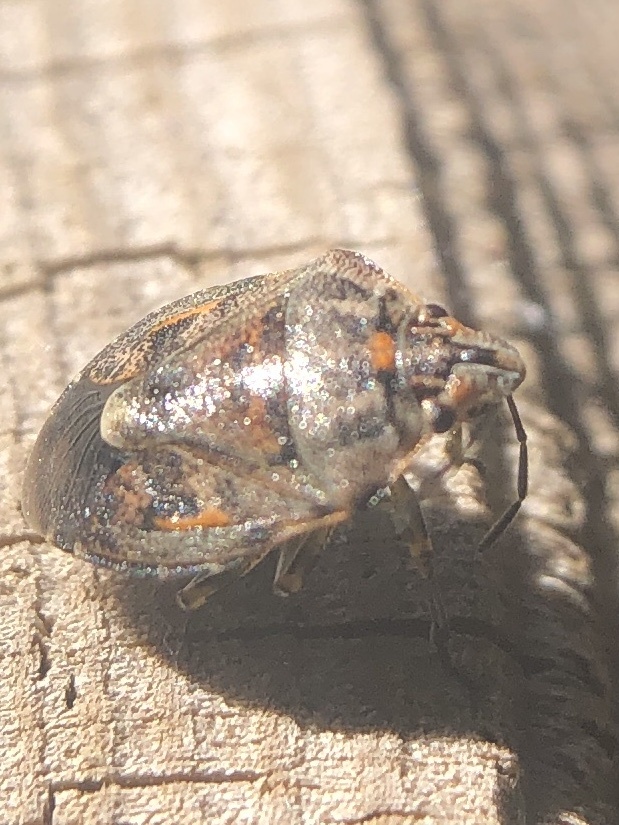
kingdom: Animalia
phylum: Arthropoda
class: Insecta
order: Hemiptera
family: Pentatomidae
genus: Holcogaster
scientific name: Holcogaster fibulata
